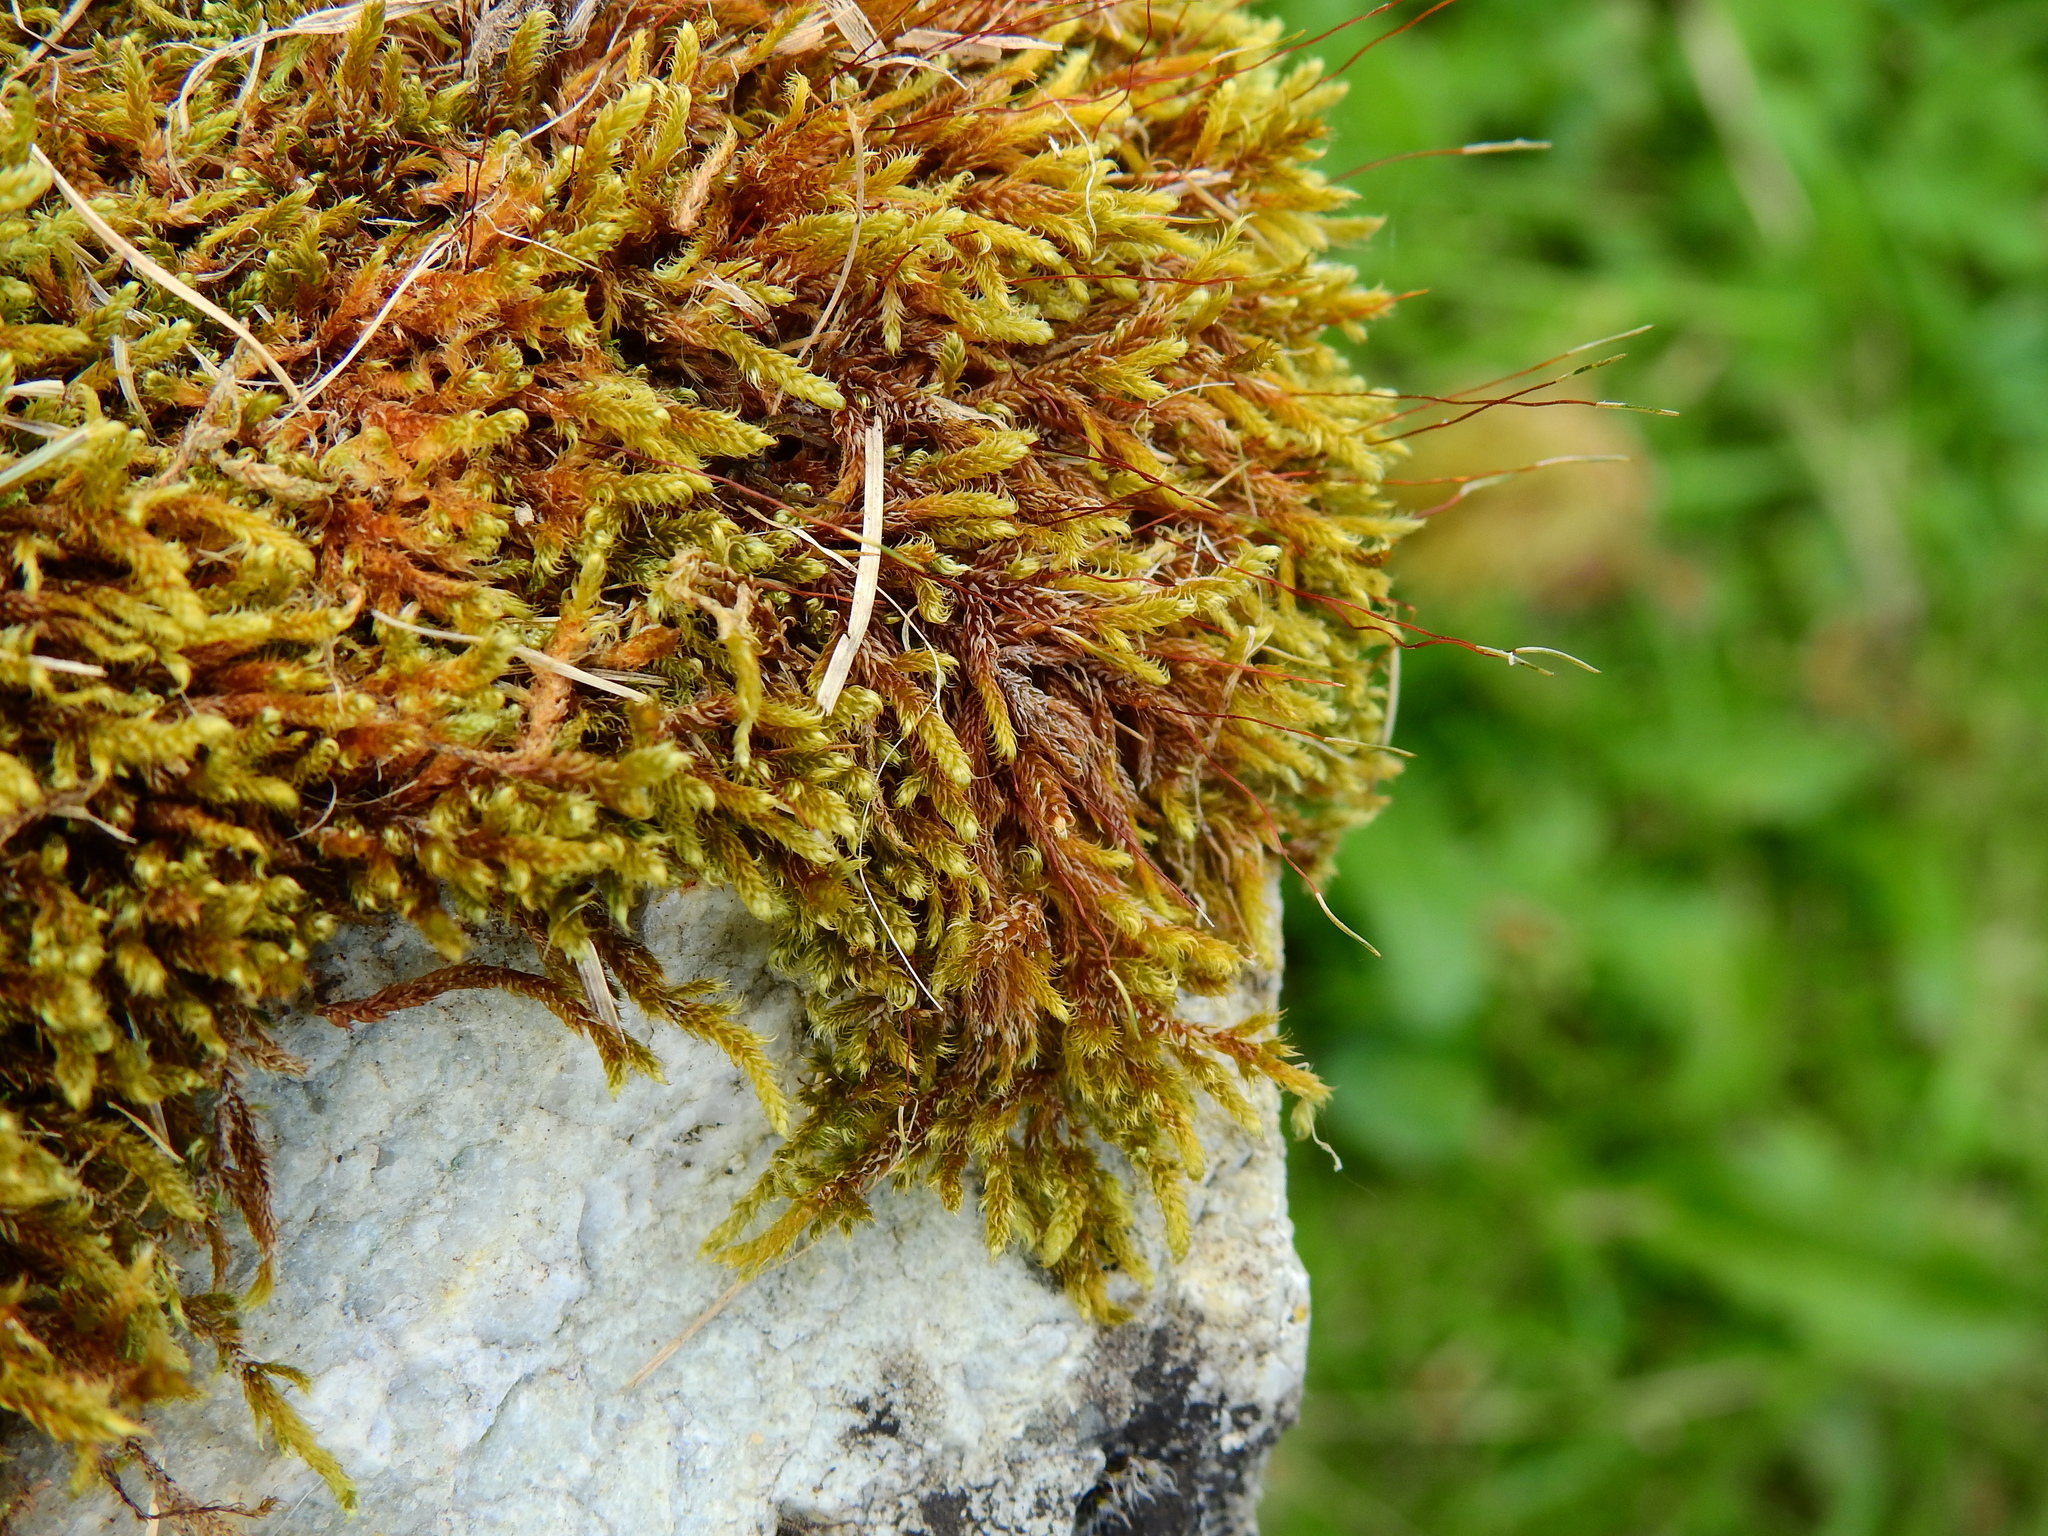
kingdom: Plantae
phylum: Bryophyta
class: Bryopsida
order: Hypnales
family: Hypnaceae
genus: Hypnum
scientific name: Hypnum cupressiforme
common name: Cypress-leaved plait-moss
